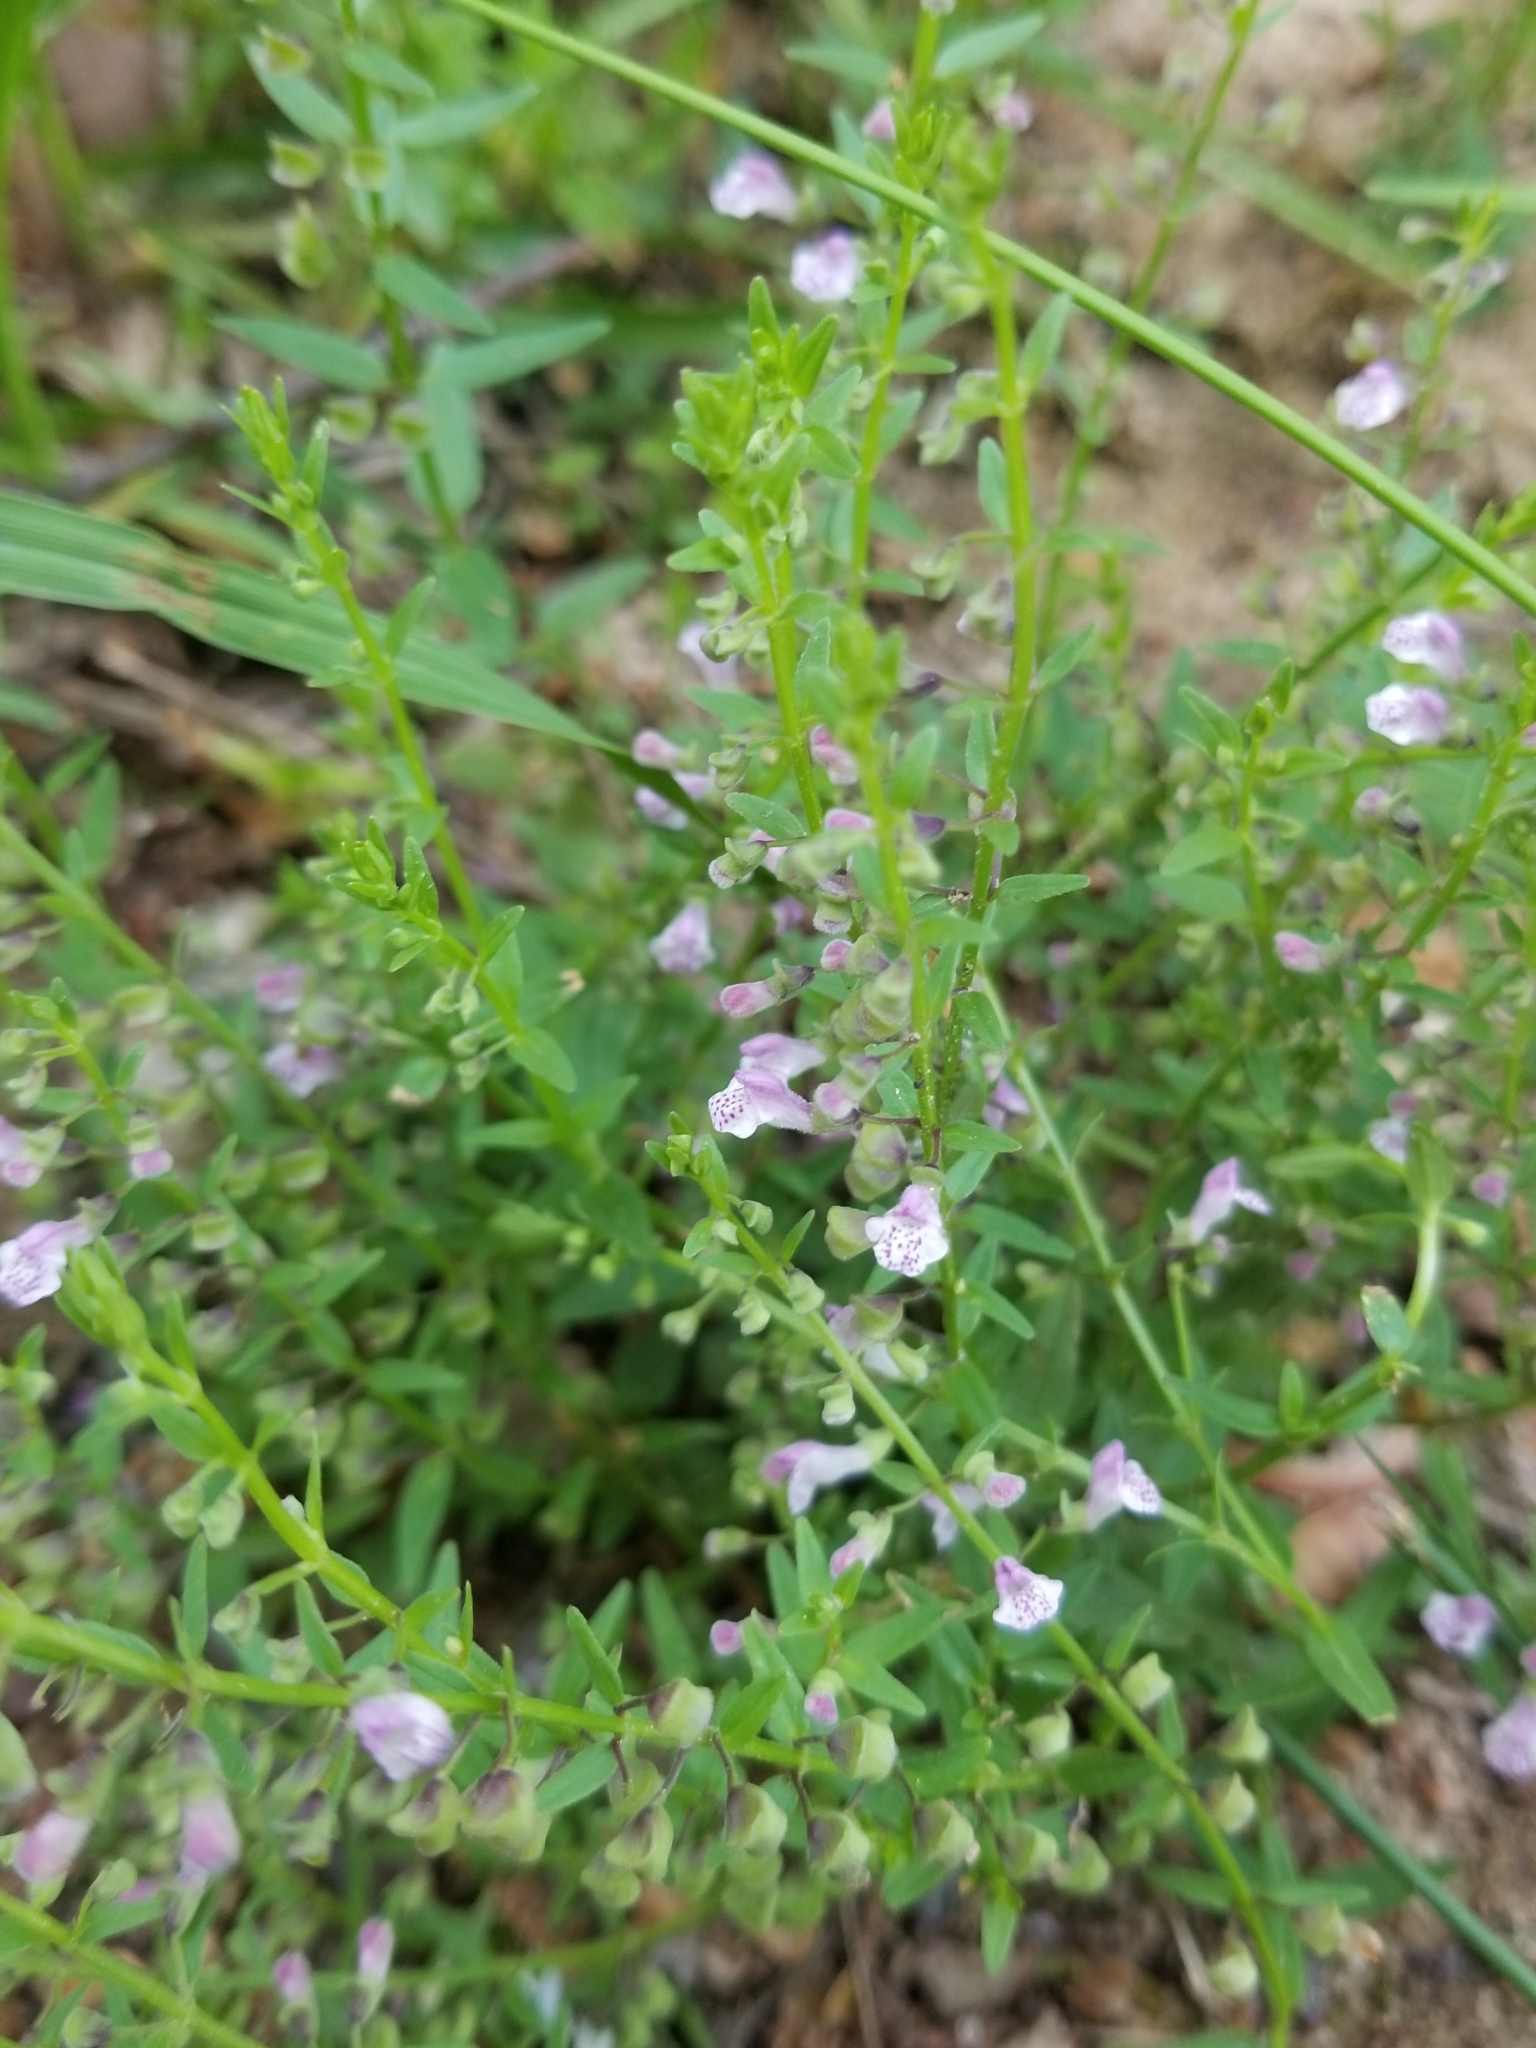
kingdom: Plantae
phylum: Tracheophyta
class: Magnoliopsida
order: Lamiales
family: Lamiaceae
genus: Scutellaria
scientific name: Scutellaria racemosa
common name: South american skullcap
